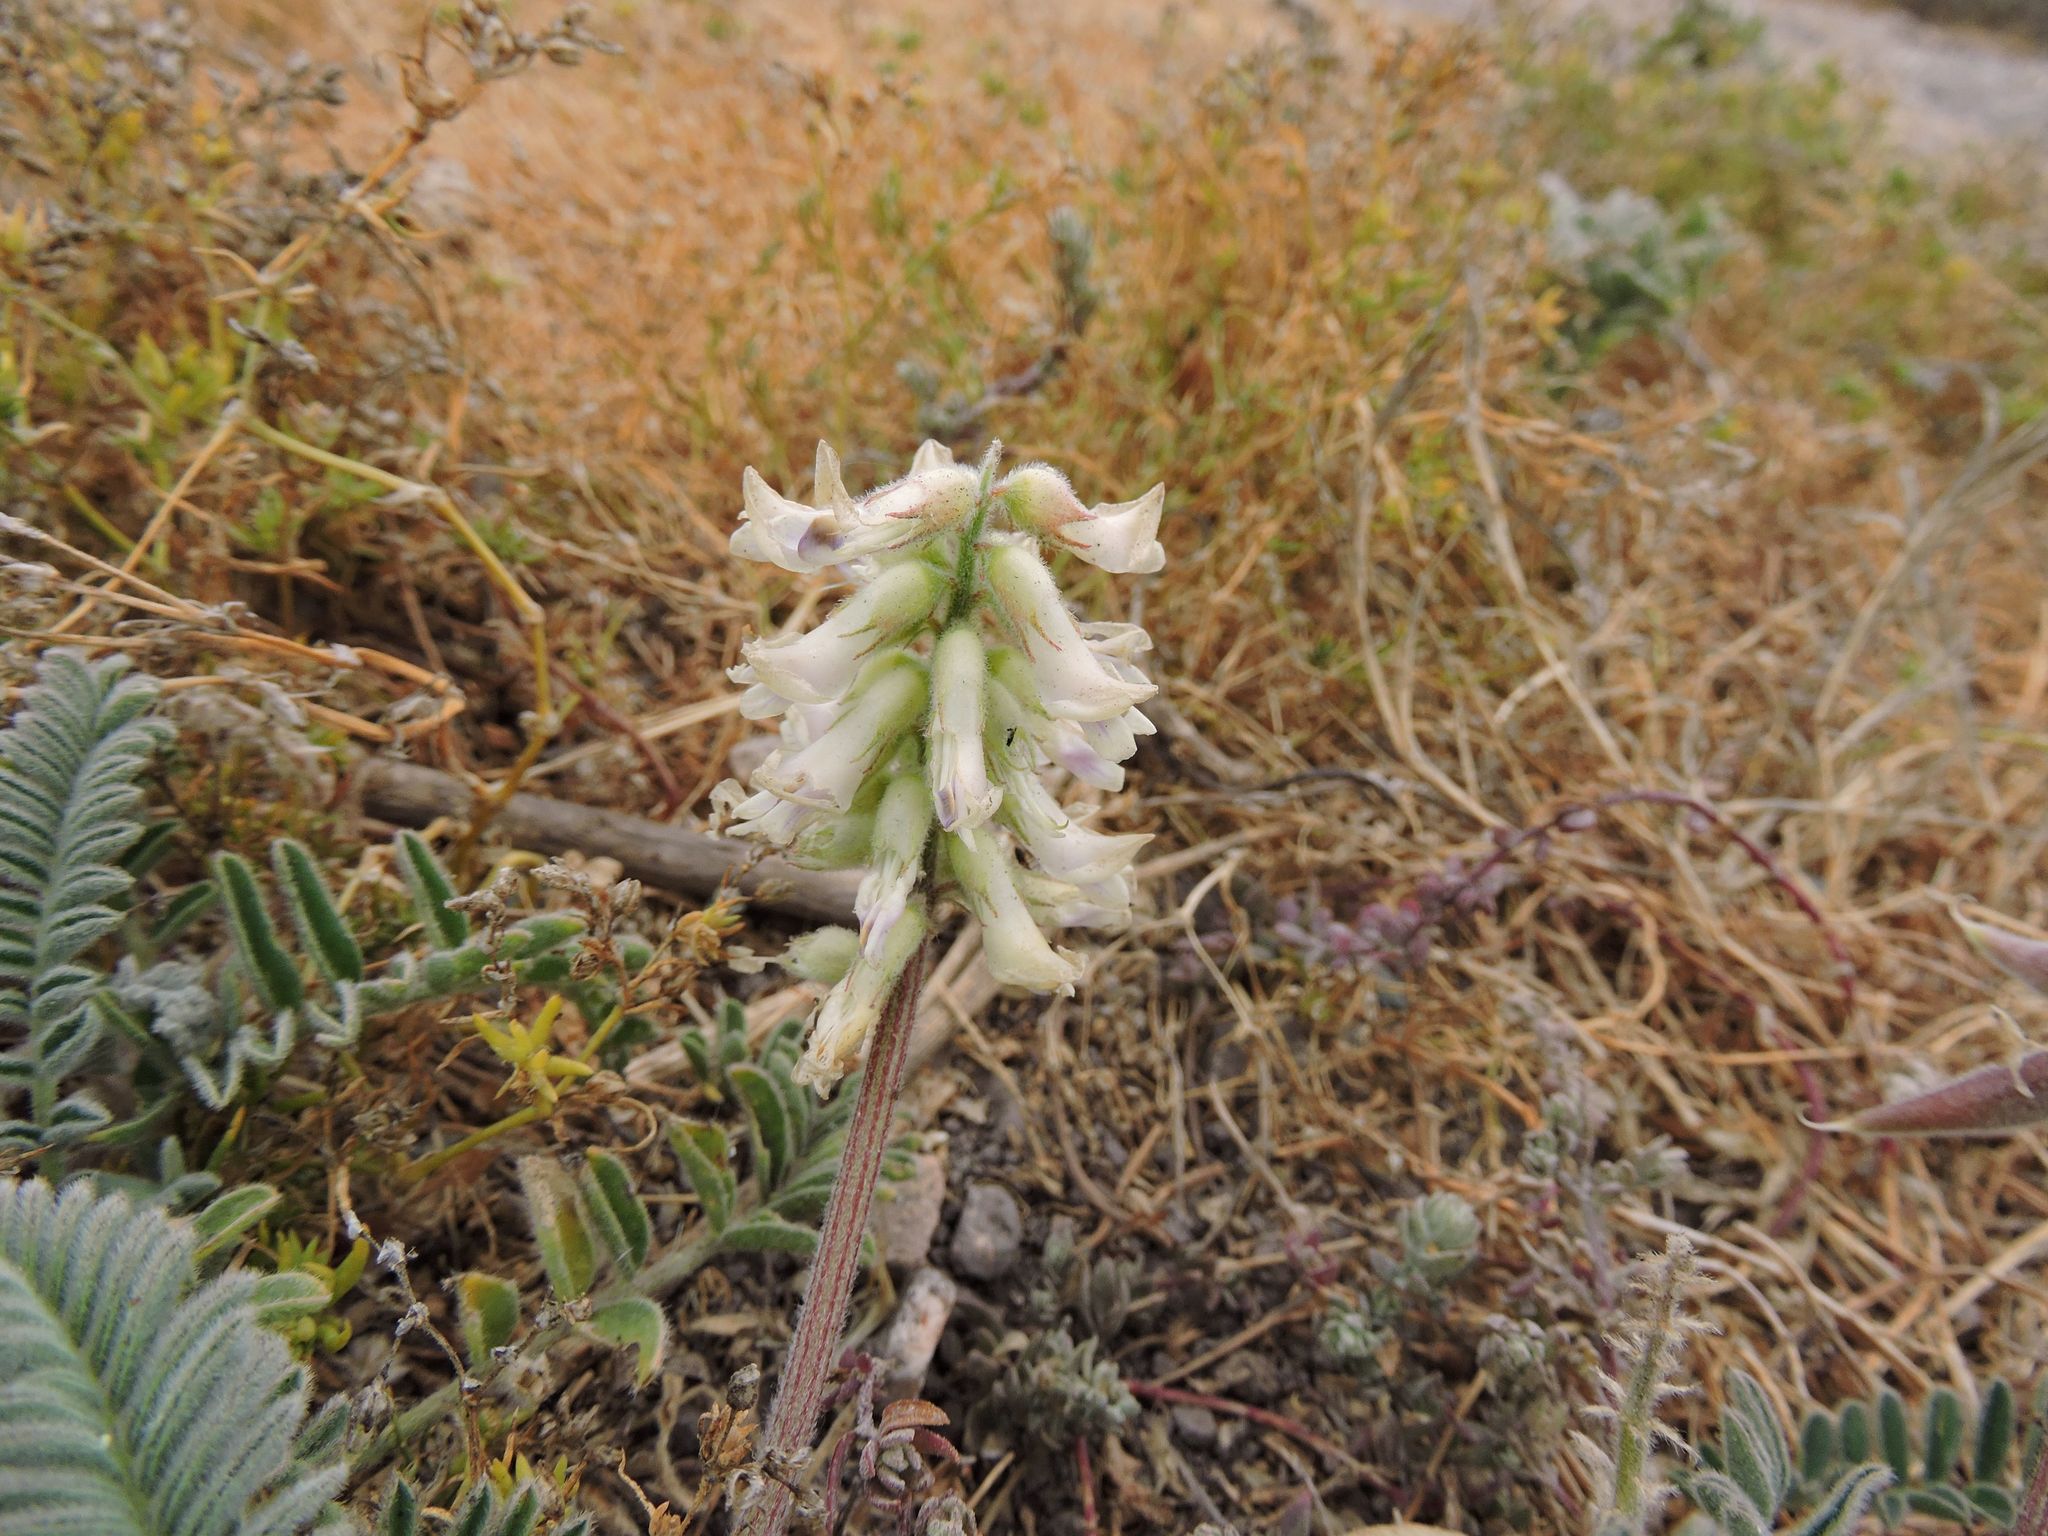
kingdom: Plantae
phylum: Tracheophyta
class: Magnoliopsida
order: Fabales
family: Fabaceae
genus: Astragalus
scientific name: Astragalus nuttallii
